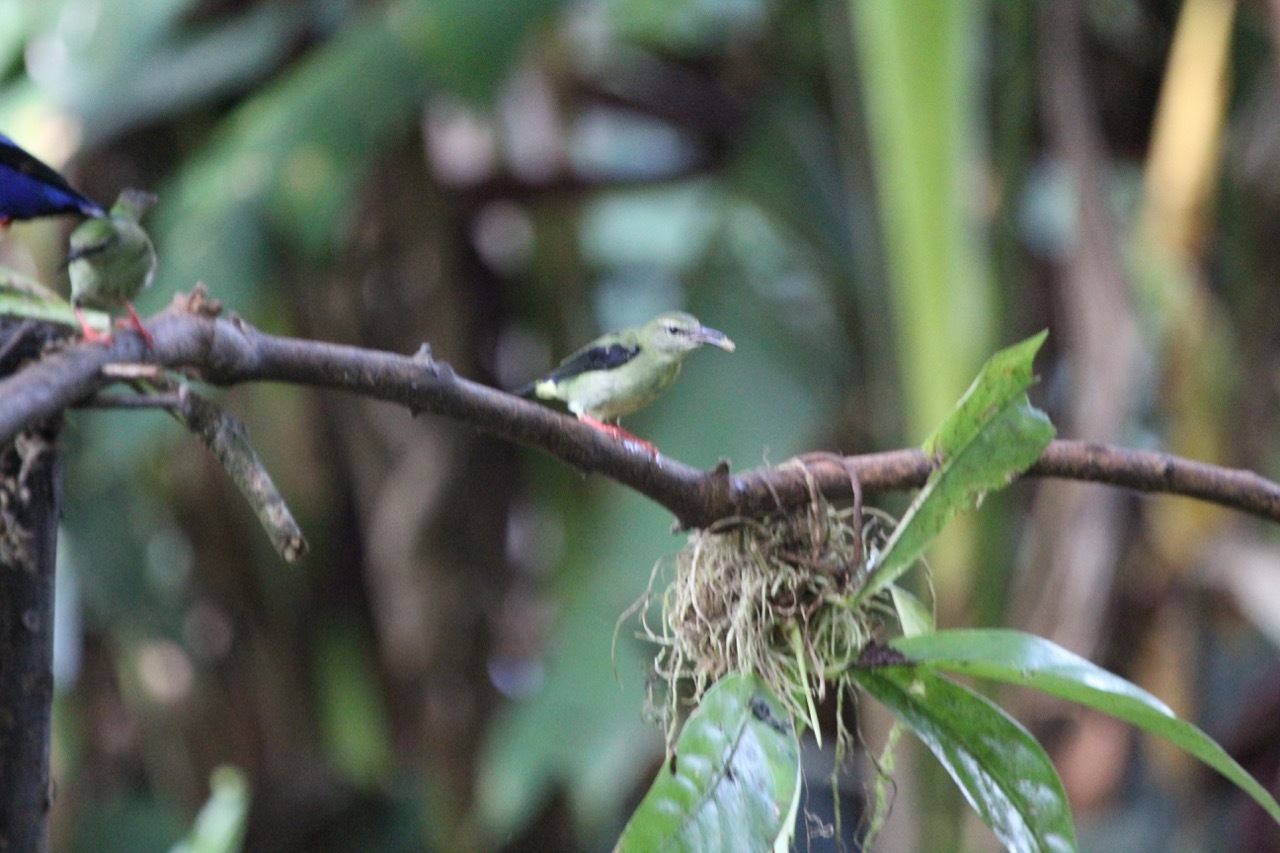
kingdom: Animalia
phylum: Chordata
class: Aves
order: Passeriformes
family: Thraupidae
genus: Cyanerpes
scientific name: Cyanerpes cyaneus
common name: Red-legged honeycreeper
